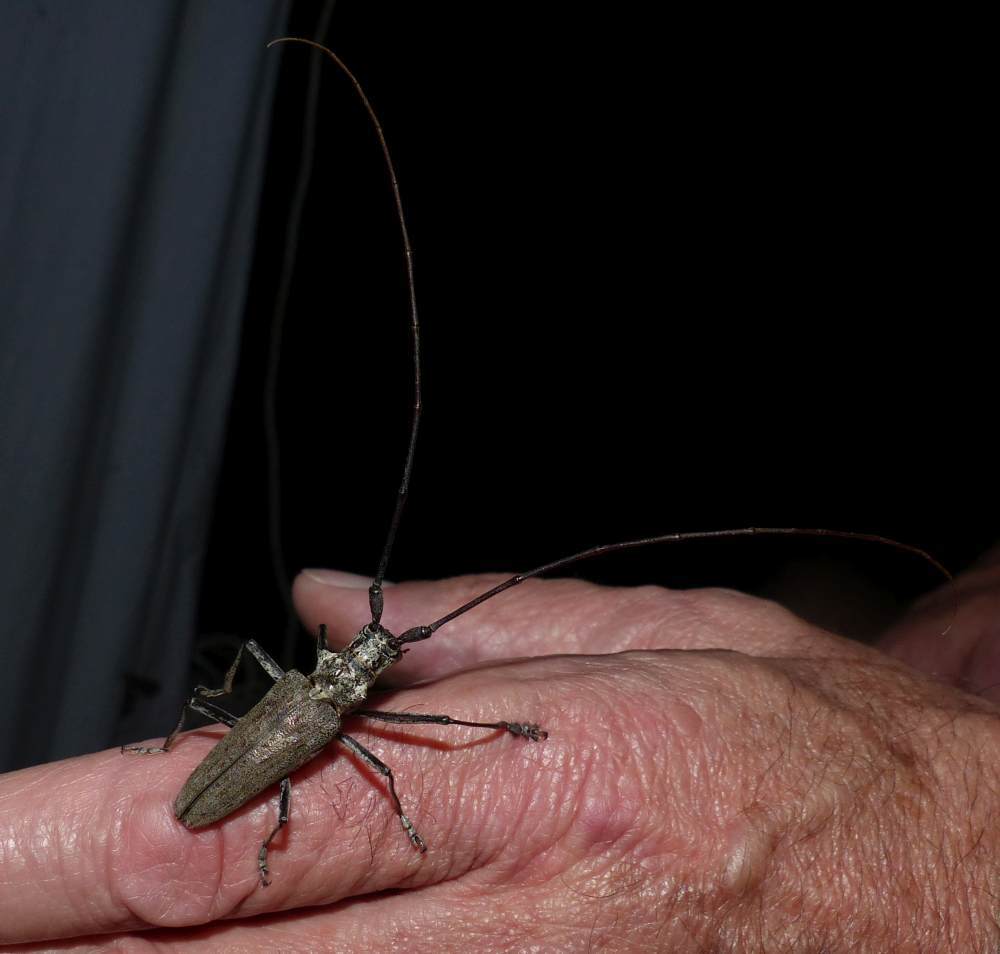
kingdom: Animalia
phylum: Arthropoda
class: Insecta
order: Coleoptera
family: Cerambycidae
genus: Monochamus
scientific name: Monochamus notatus
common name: Northeastern pine sawyer beetle
